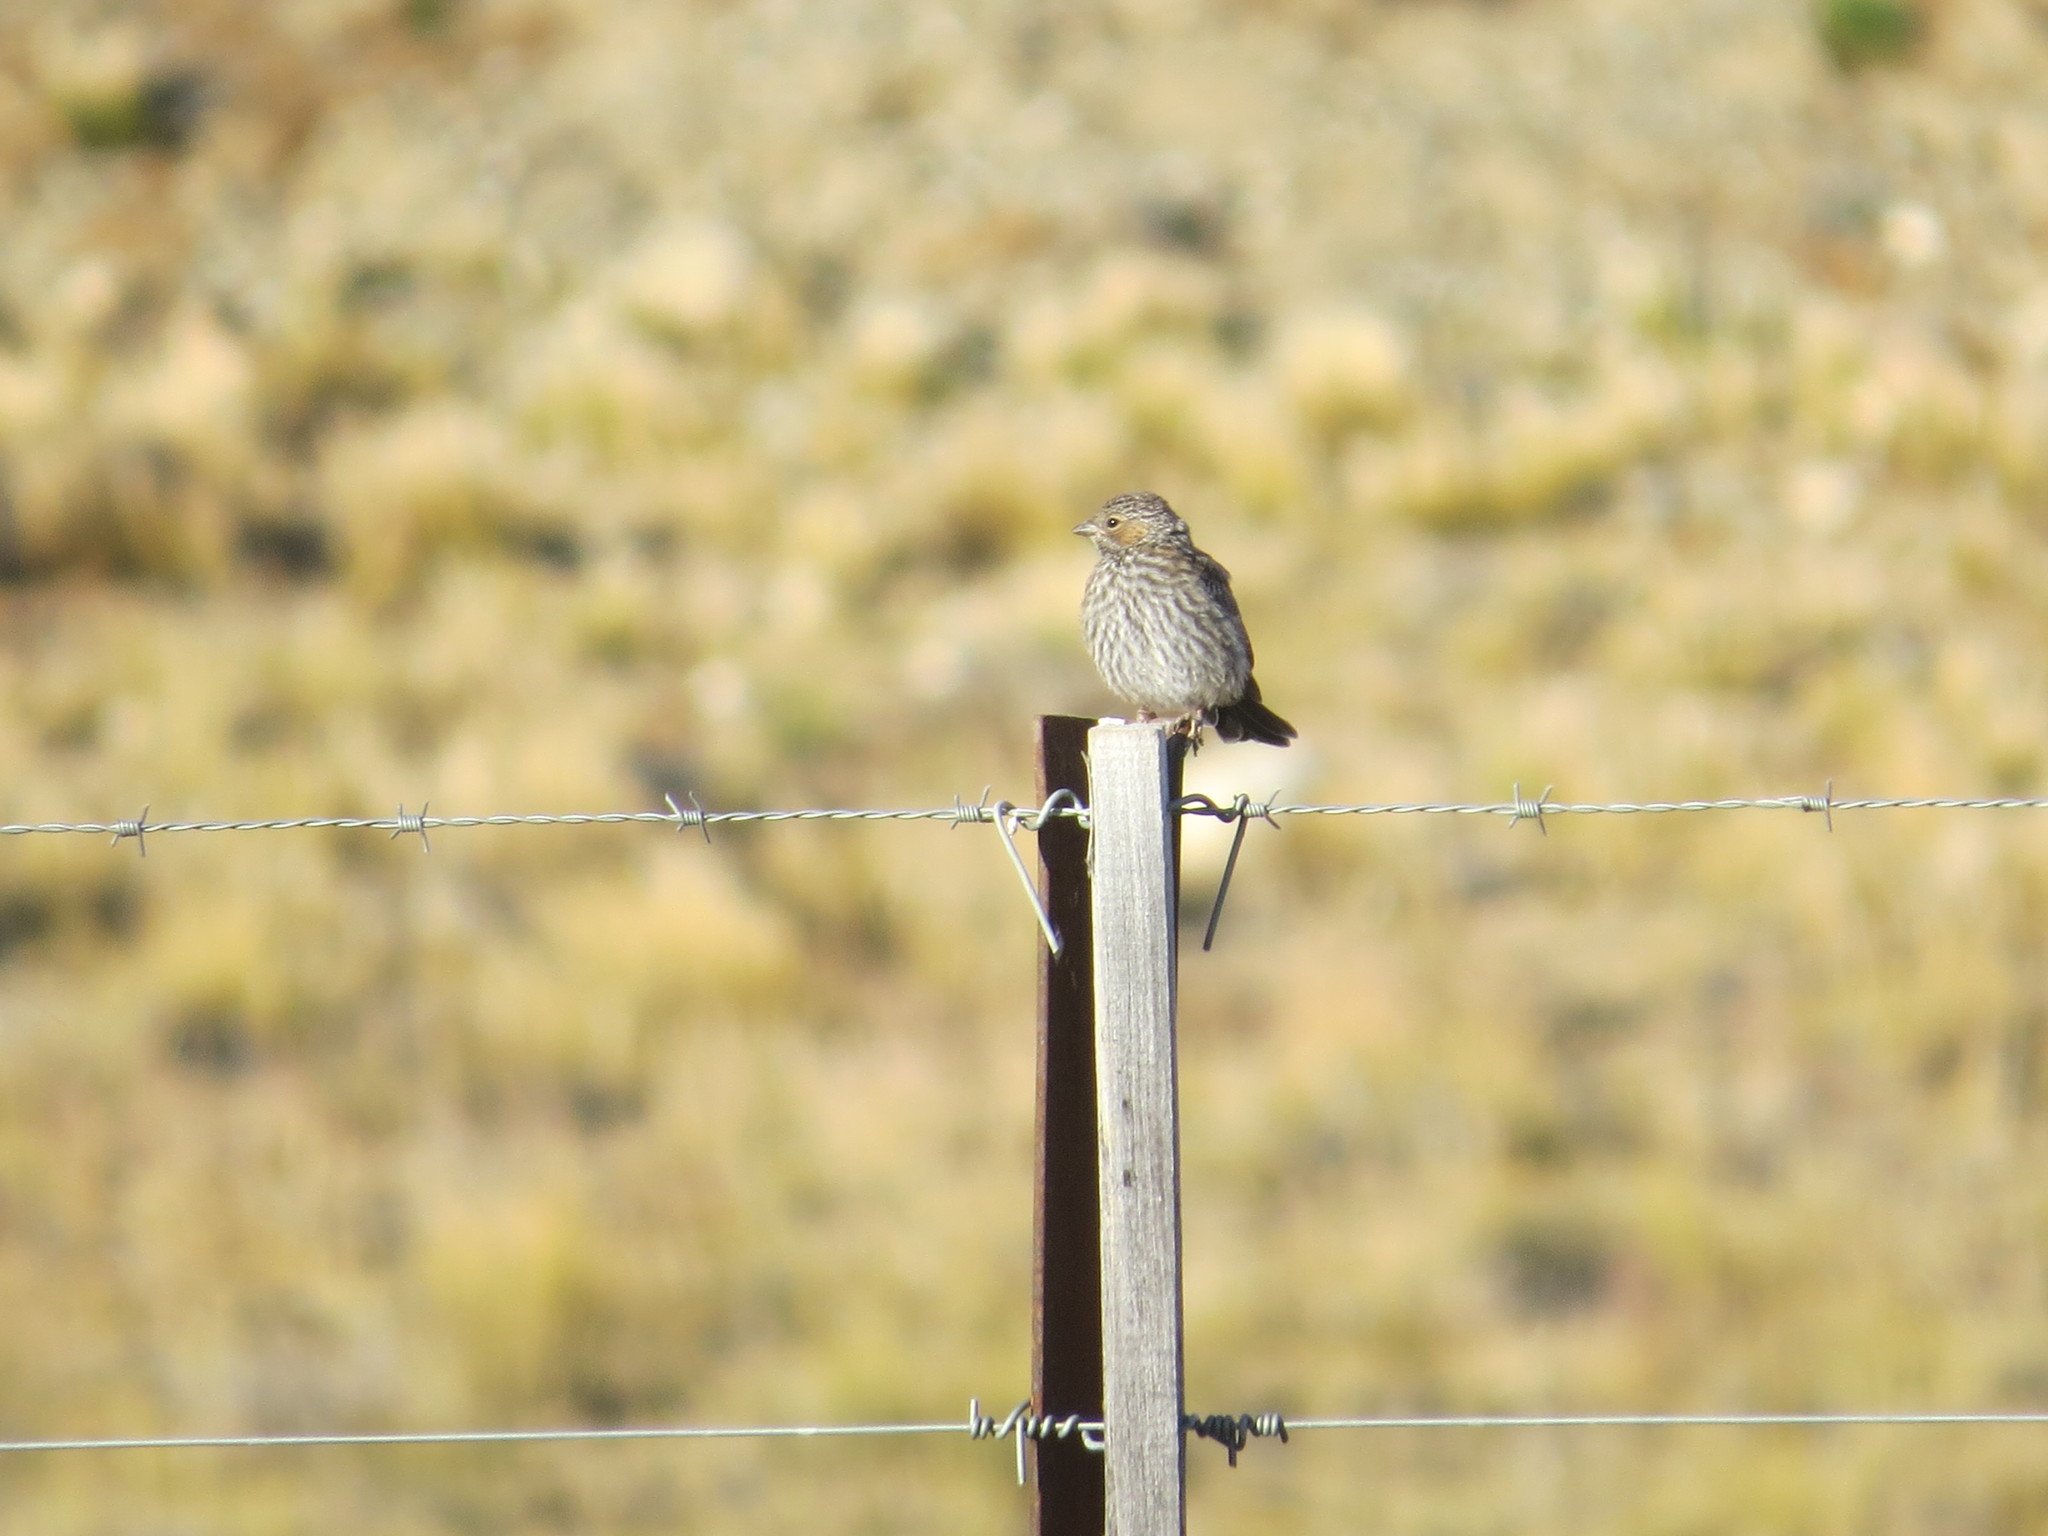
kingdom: Animalia
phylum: Chordata
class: Aves
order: Passeriformes
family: Thraupidae
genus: Rhopospina
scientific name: Rhopospina fruticeti
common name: Mourning sierra finch
